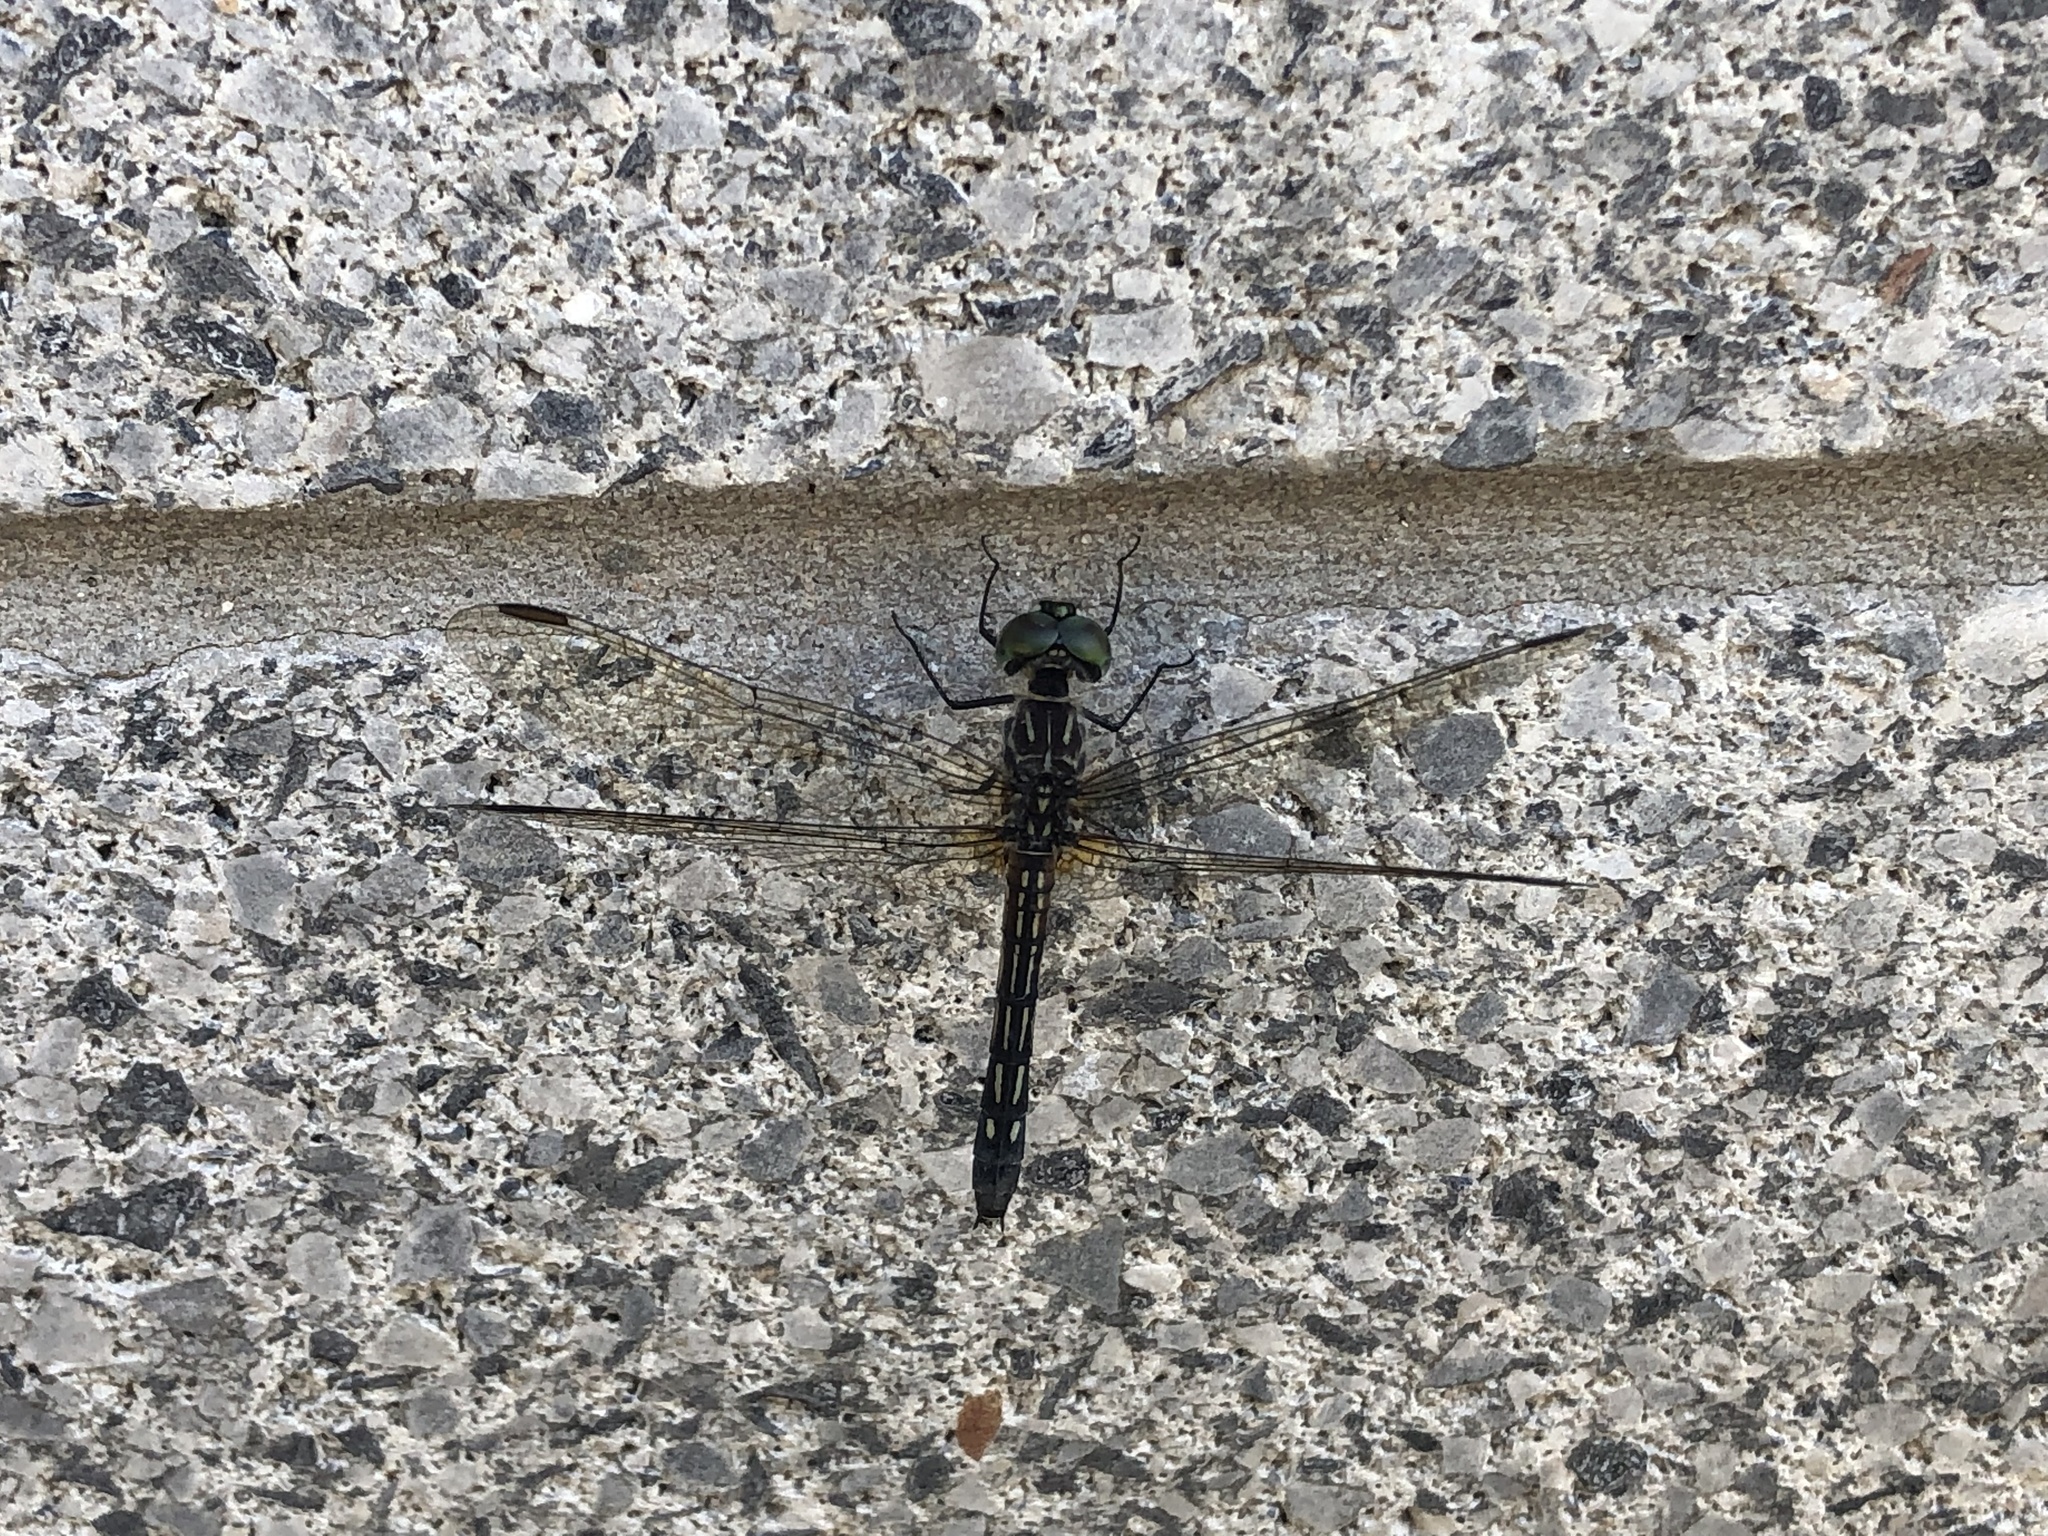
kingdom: Animalia
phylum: Arthropoda
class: Insecta
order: Odonata
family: Libellulidae
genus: Pachydiplax
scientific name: Pachydiplax longipennis
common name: Blue dasher
